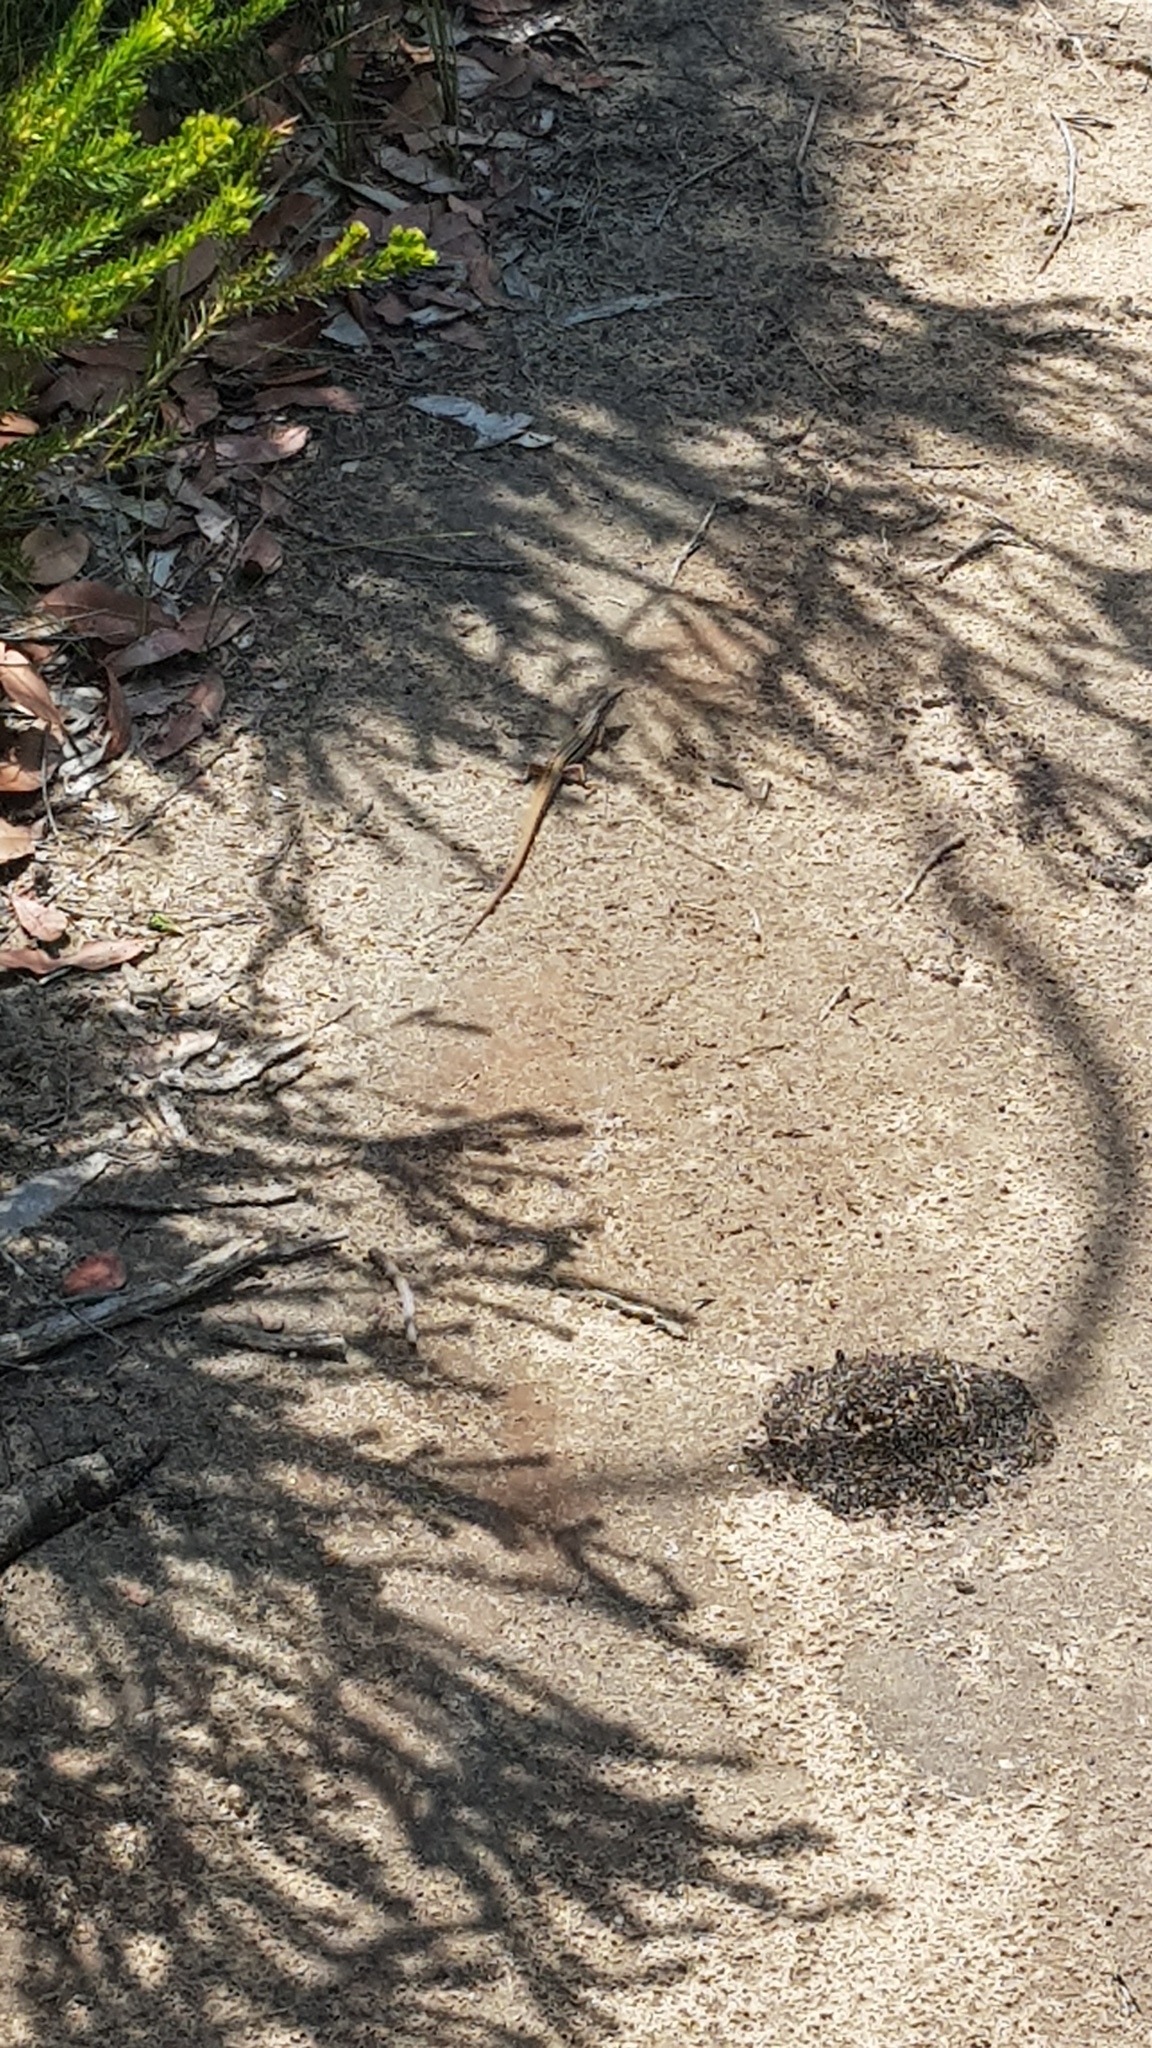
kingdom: Animalia
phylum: Chordata
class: Squamata
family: Scincidae
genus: Ctenotus
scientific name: Ctenotus taeniolatus
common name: Copper-tailed skink
